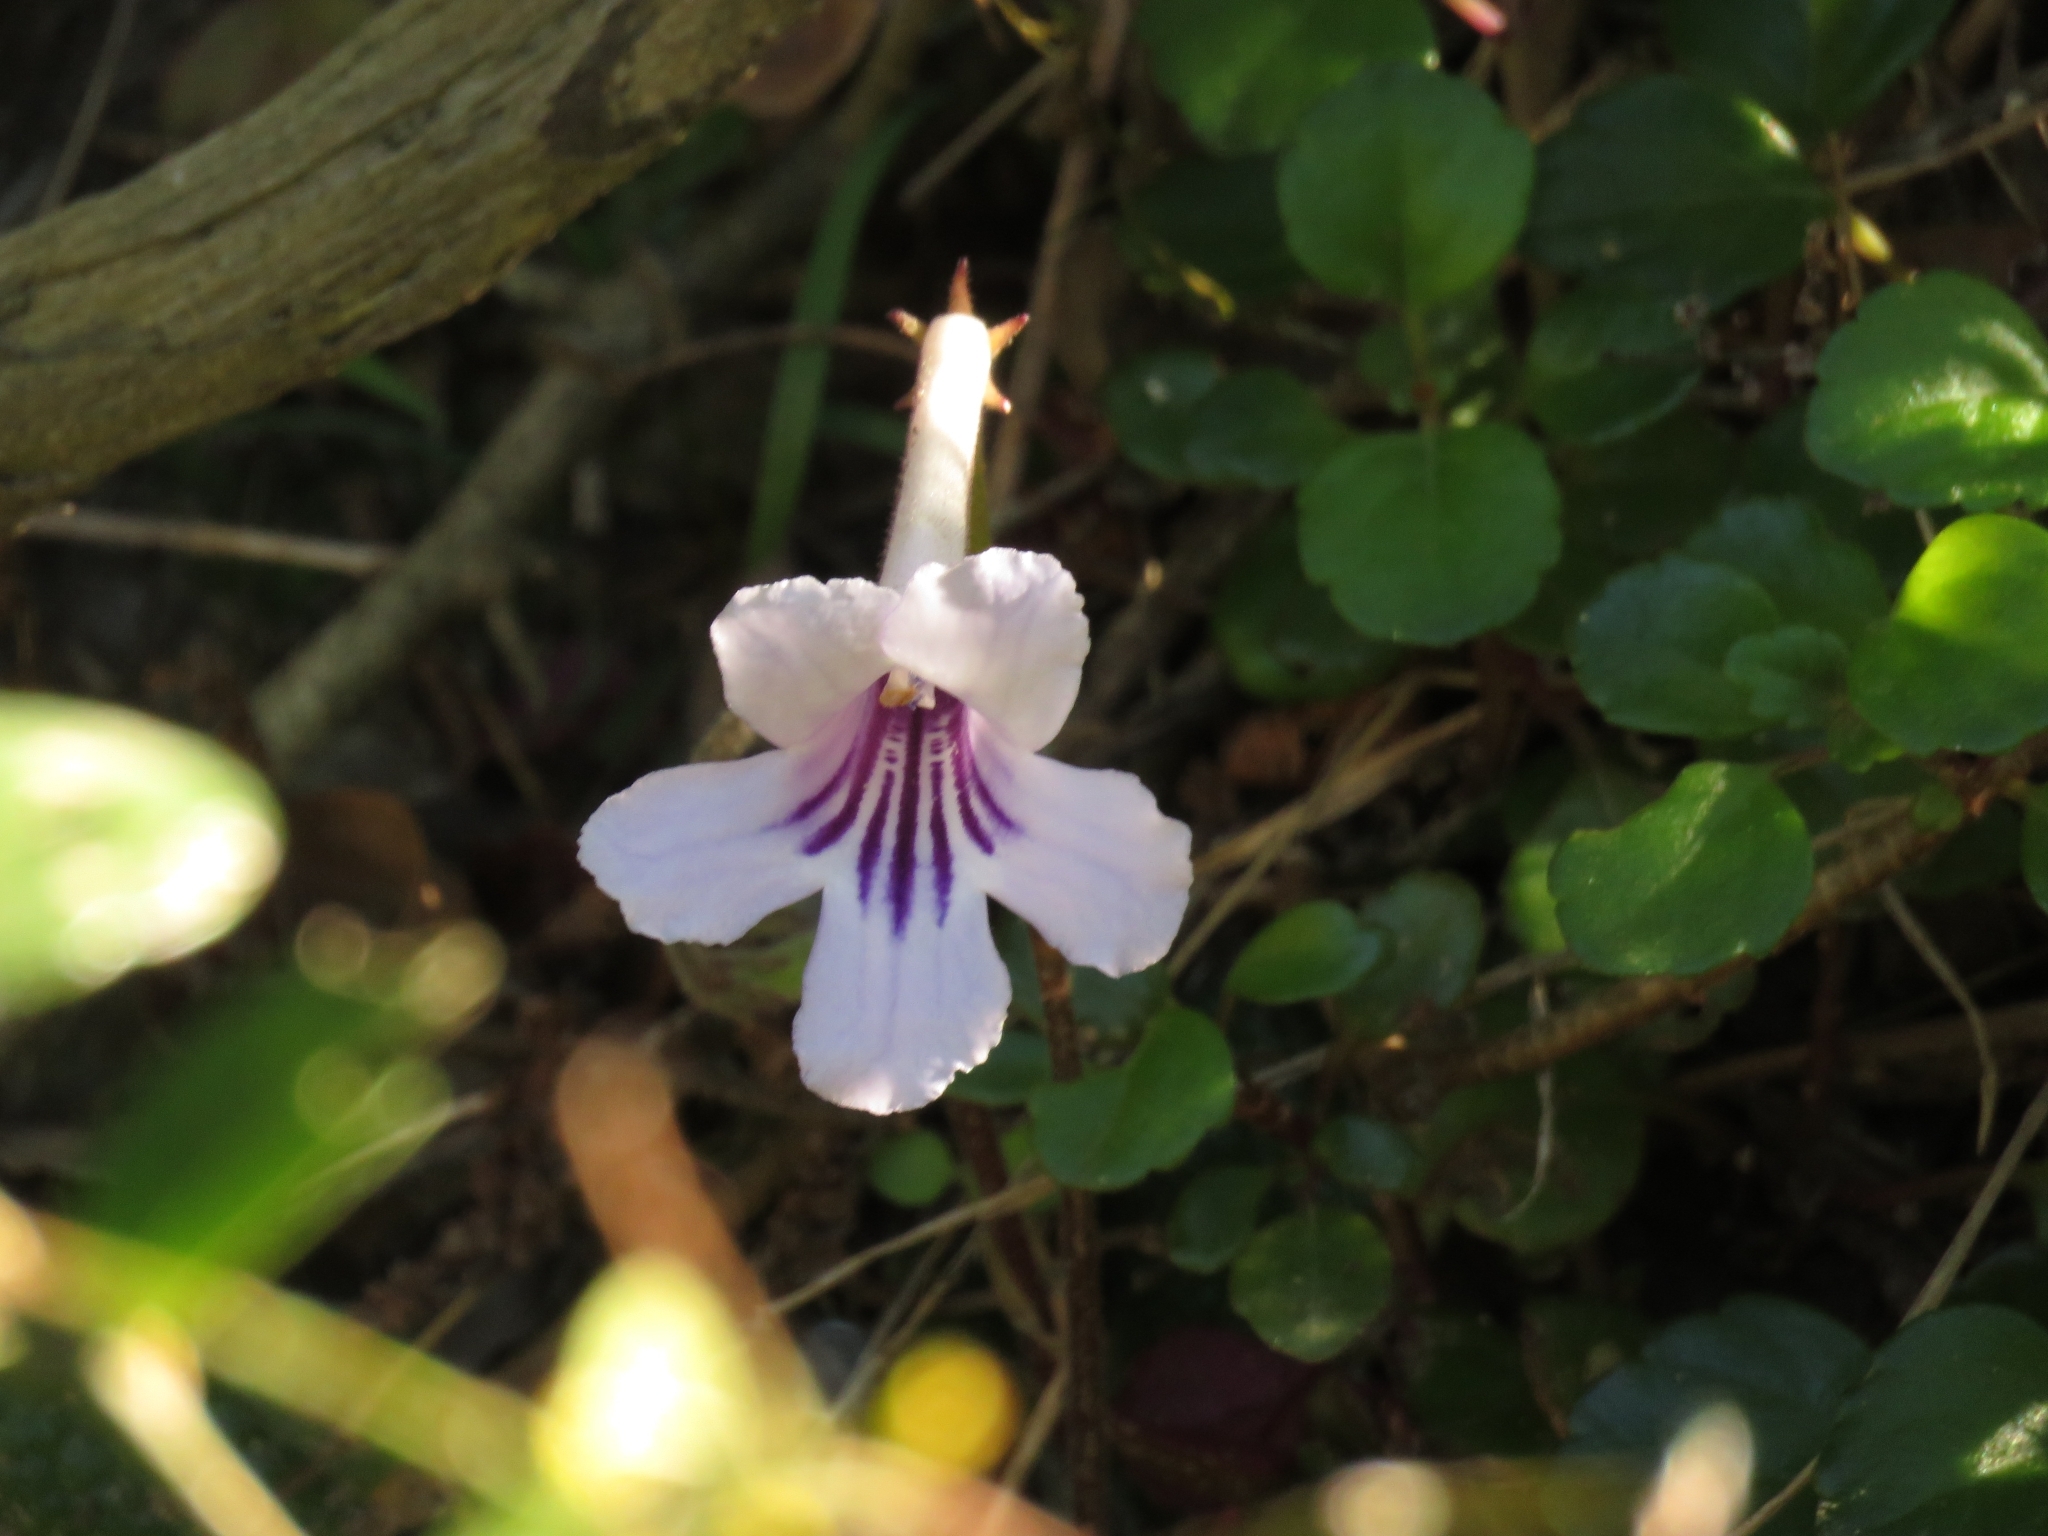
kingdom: Plantae
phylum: Tracheophyta
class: Magnoliopsida
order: Lamiales
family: Gesneriaceae
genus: Streptocarpus
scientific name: Streptocarpus rexii
